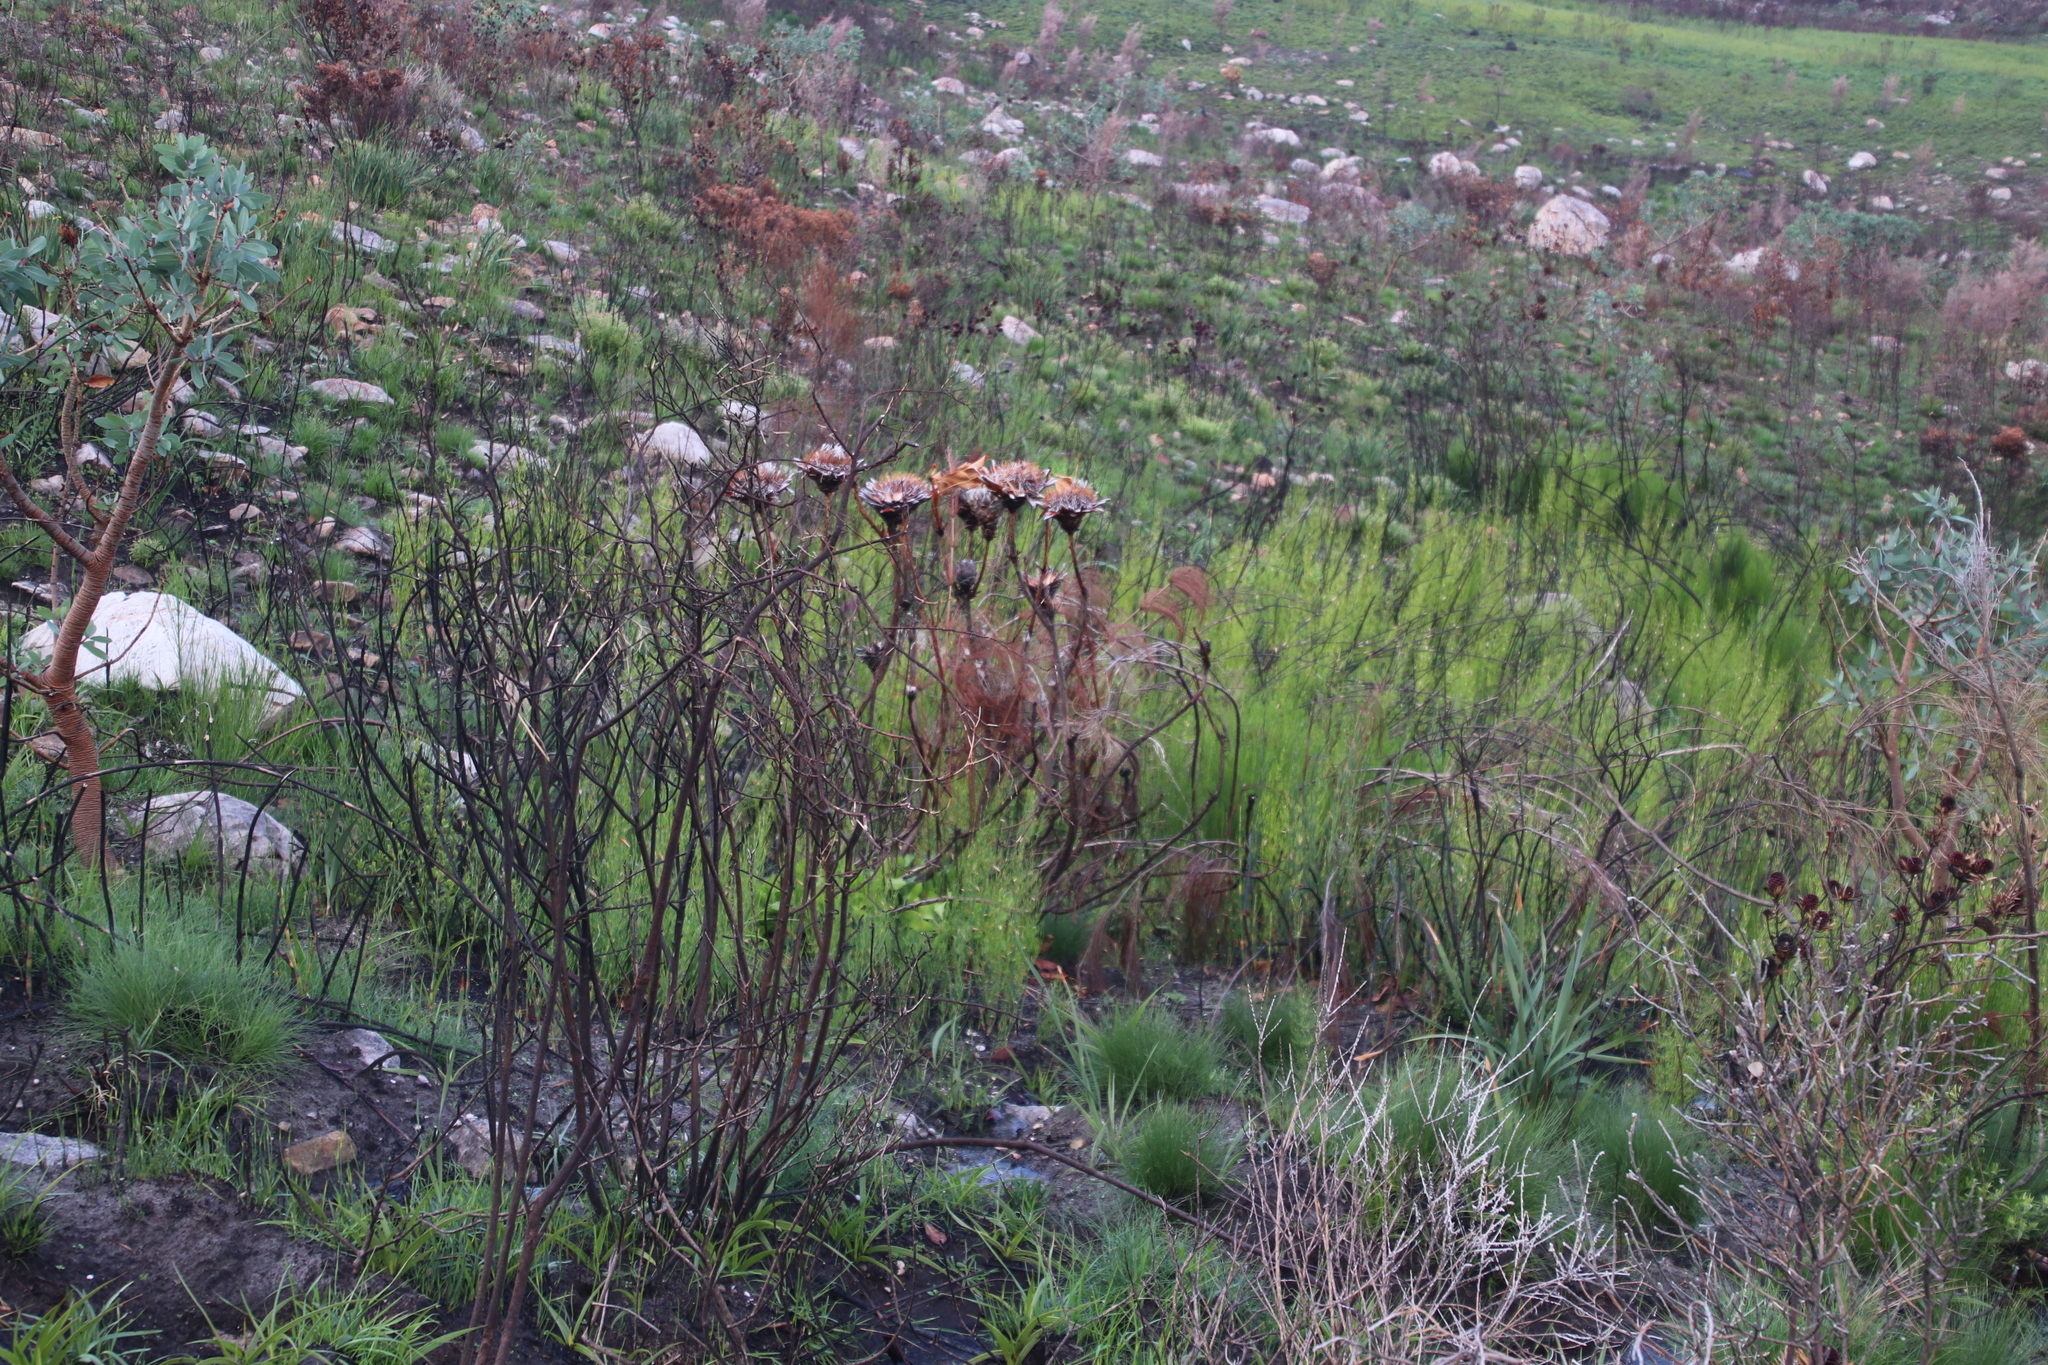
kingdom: Plantae
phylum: Tracheophyta
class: Magnoliopsida
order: Proteales
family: Proteaceae
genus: Protea
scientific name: Protea cynaroides
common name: King protea
